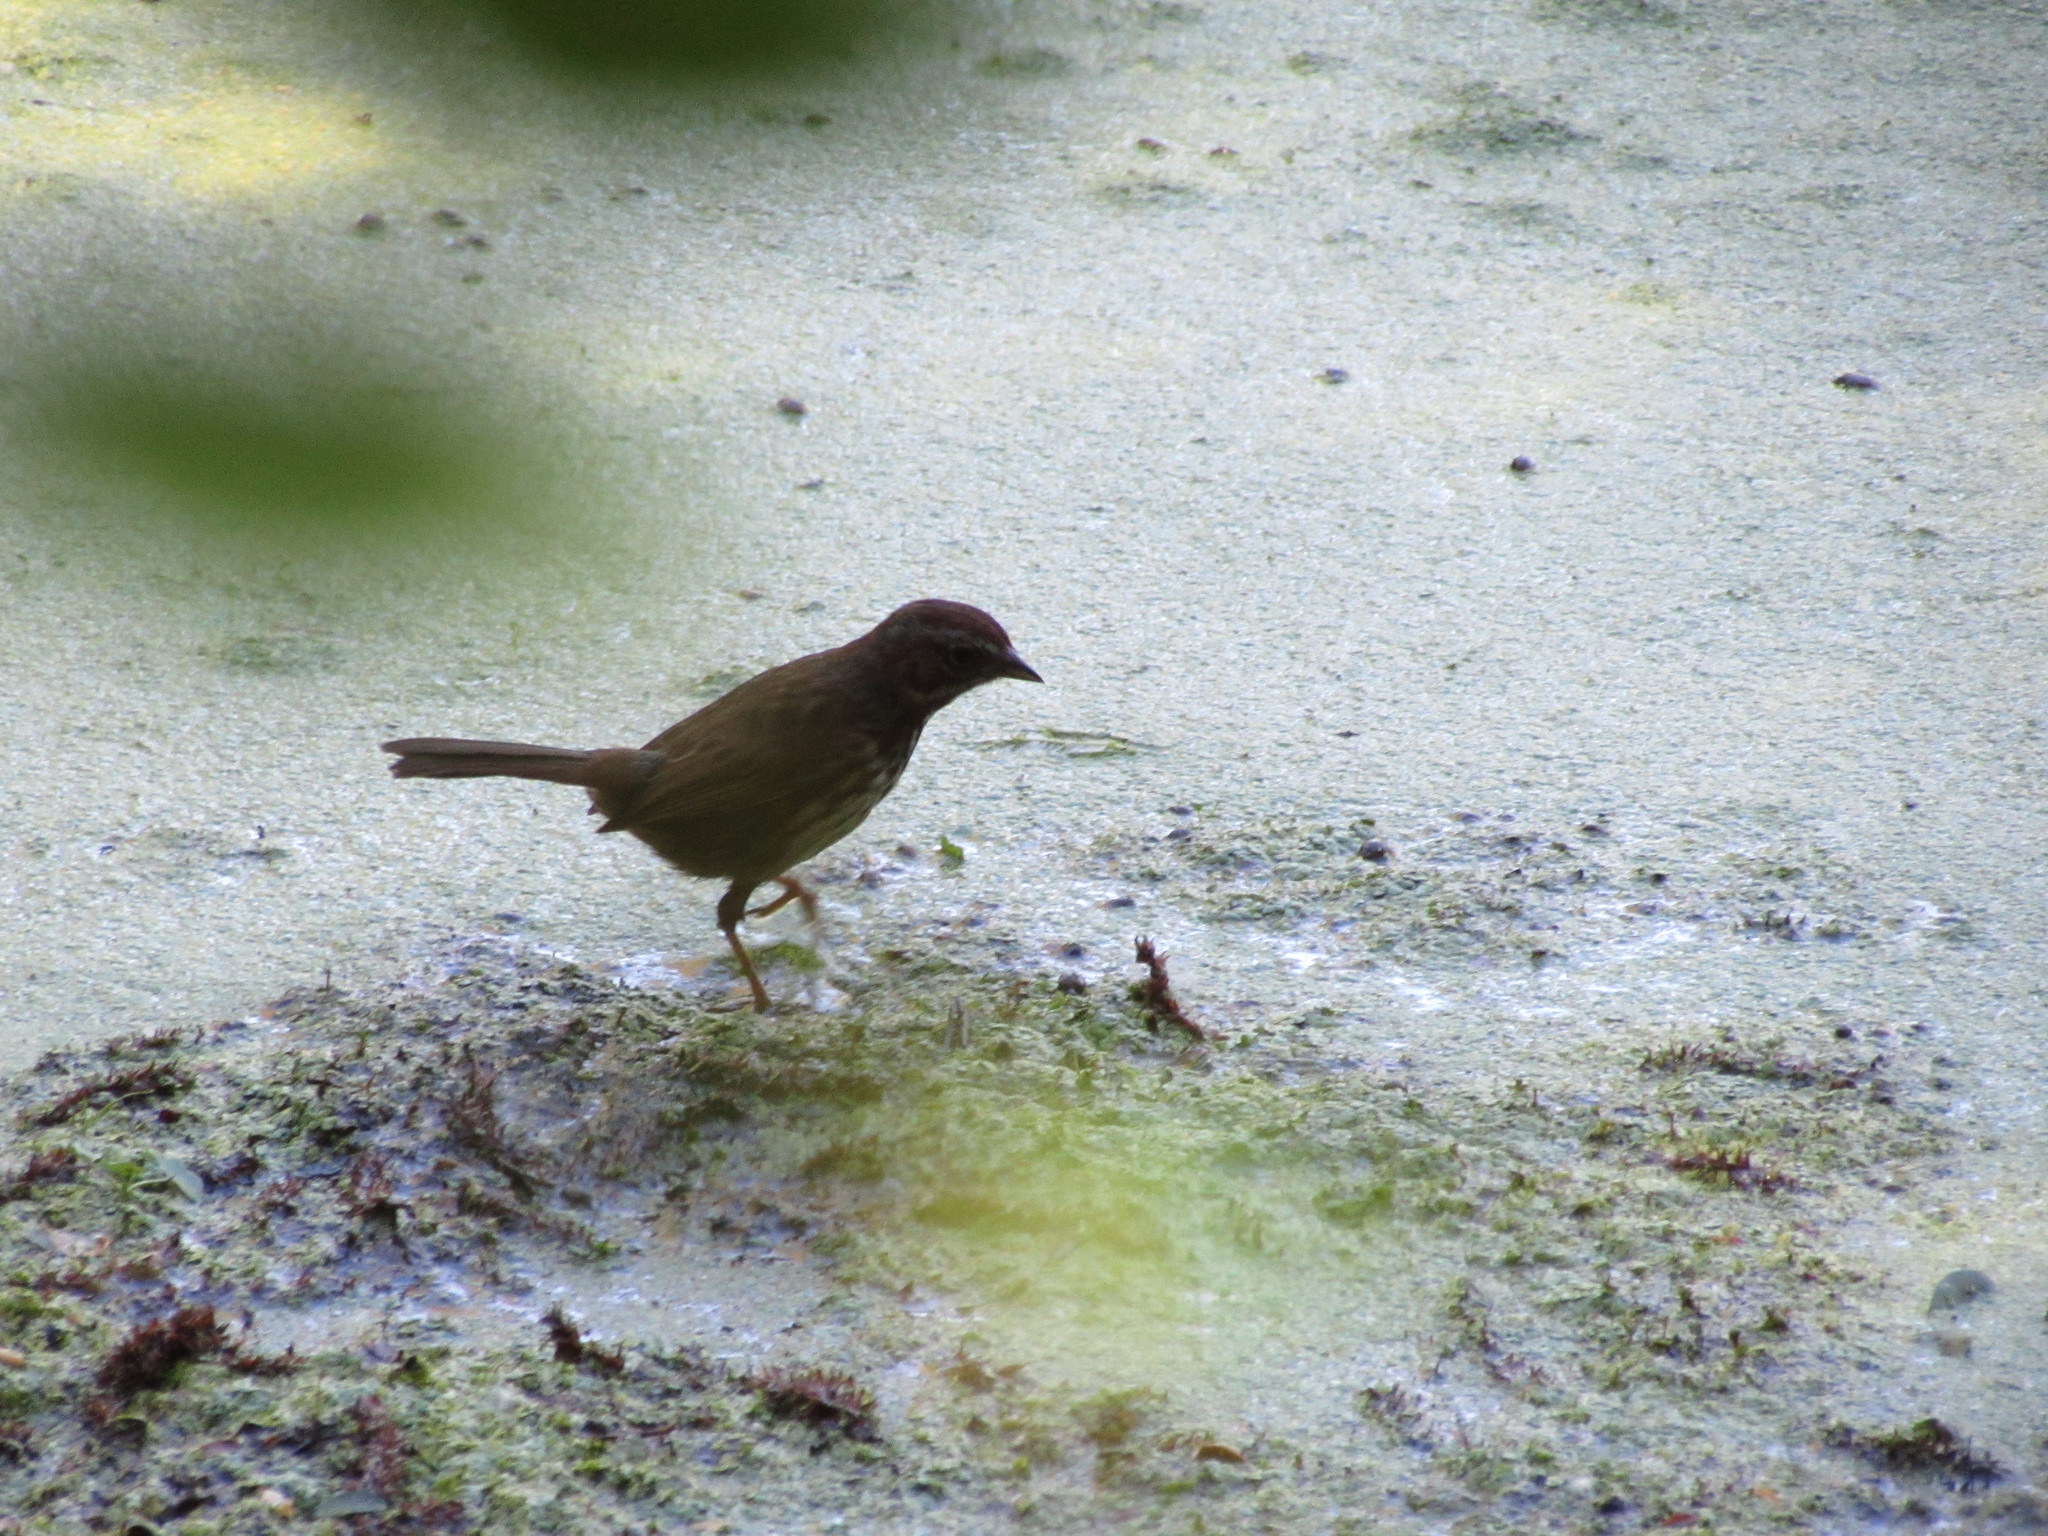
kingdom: Animalia
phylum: Chordata
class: Aves
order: Passeriformes
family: Passerellidae
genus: Melospiza
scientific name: Melospiza melodia
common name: Song sparrow
